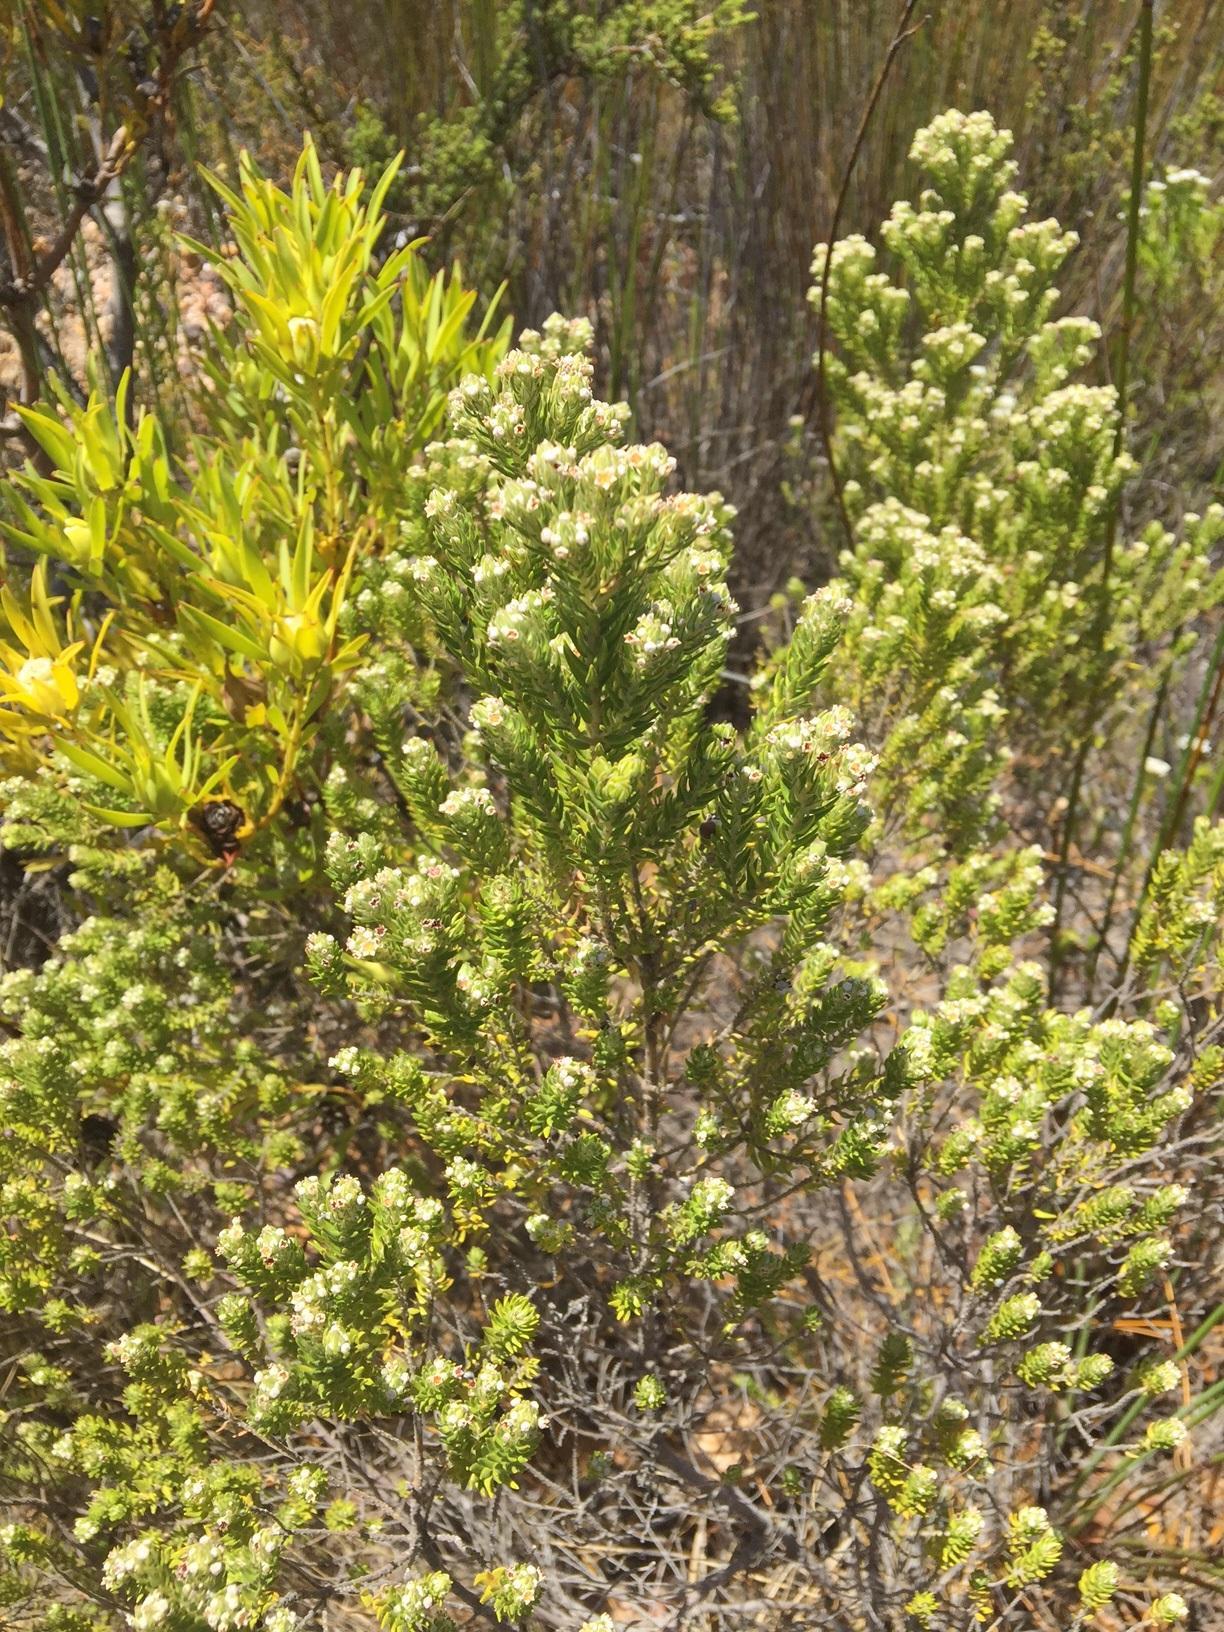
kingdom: Plantae
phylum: Tracheophyta
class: Magnoliopsida
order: Rosales
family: Rhamnaceae
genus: Phylica
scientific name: Phylica pinea
